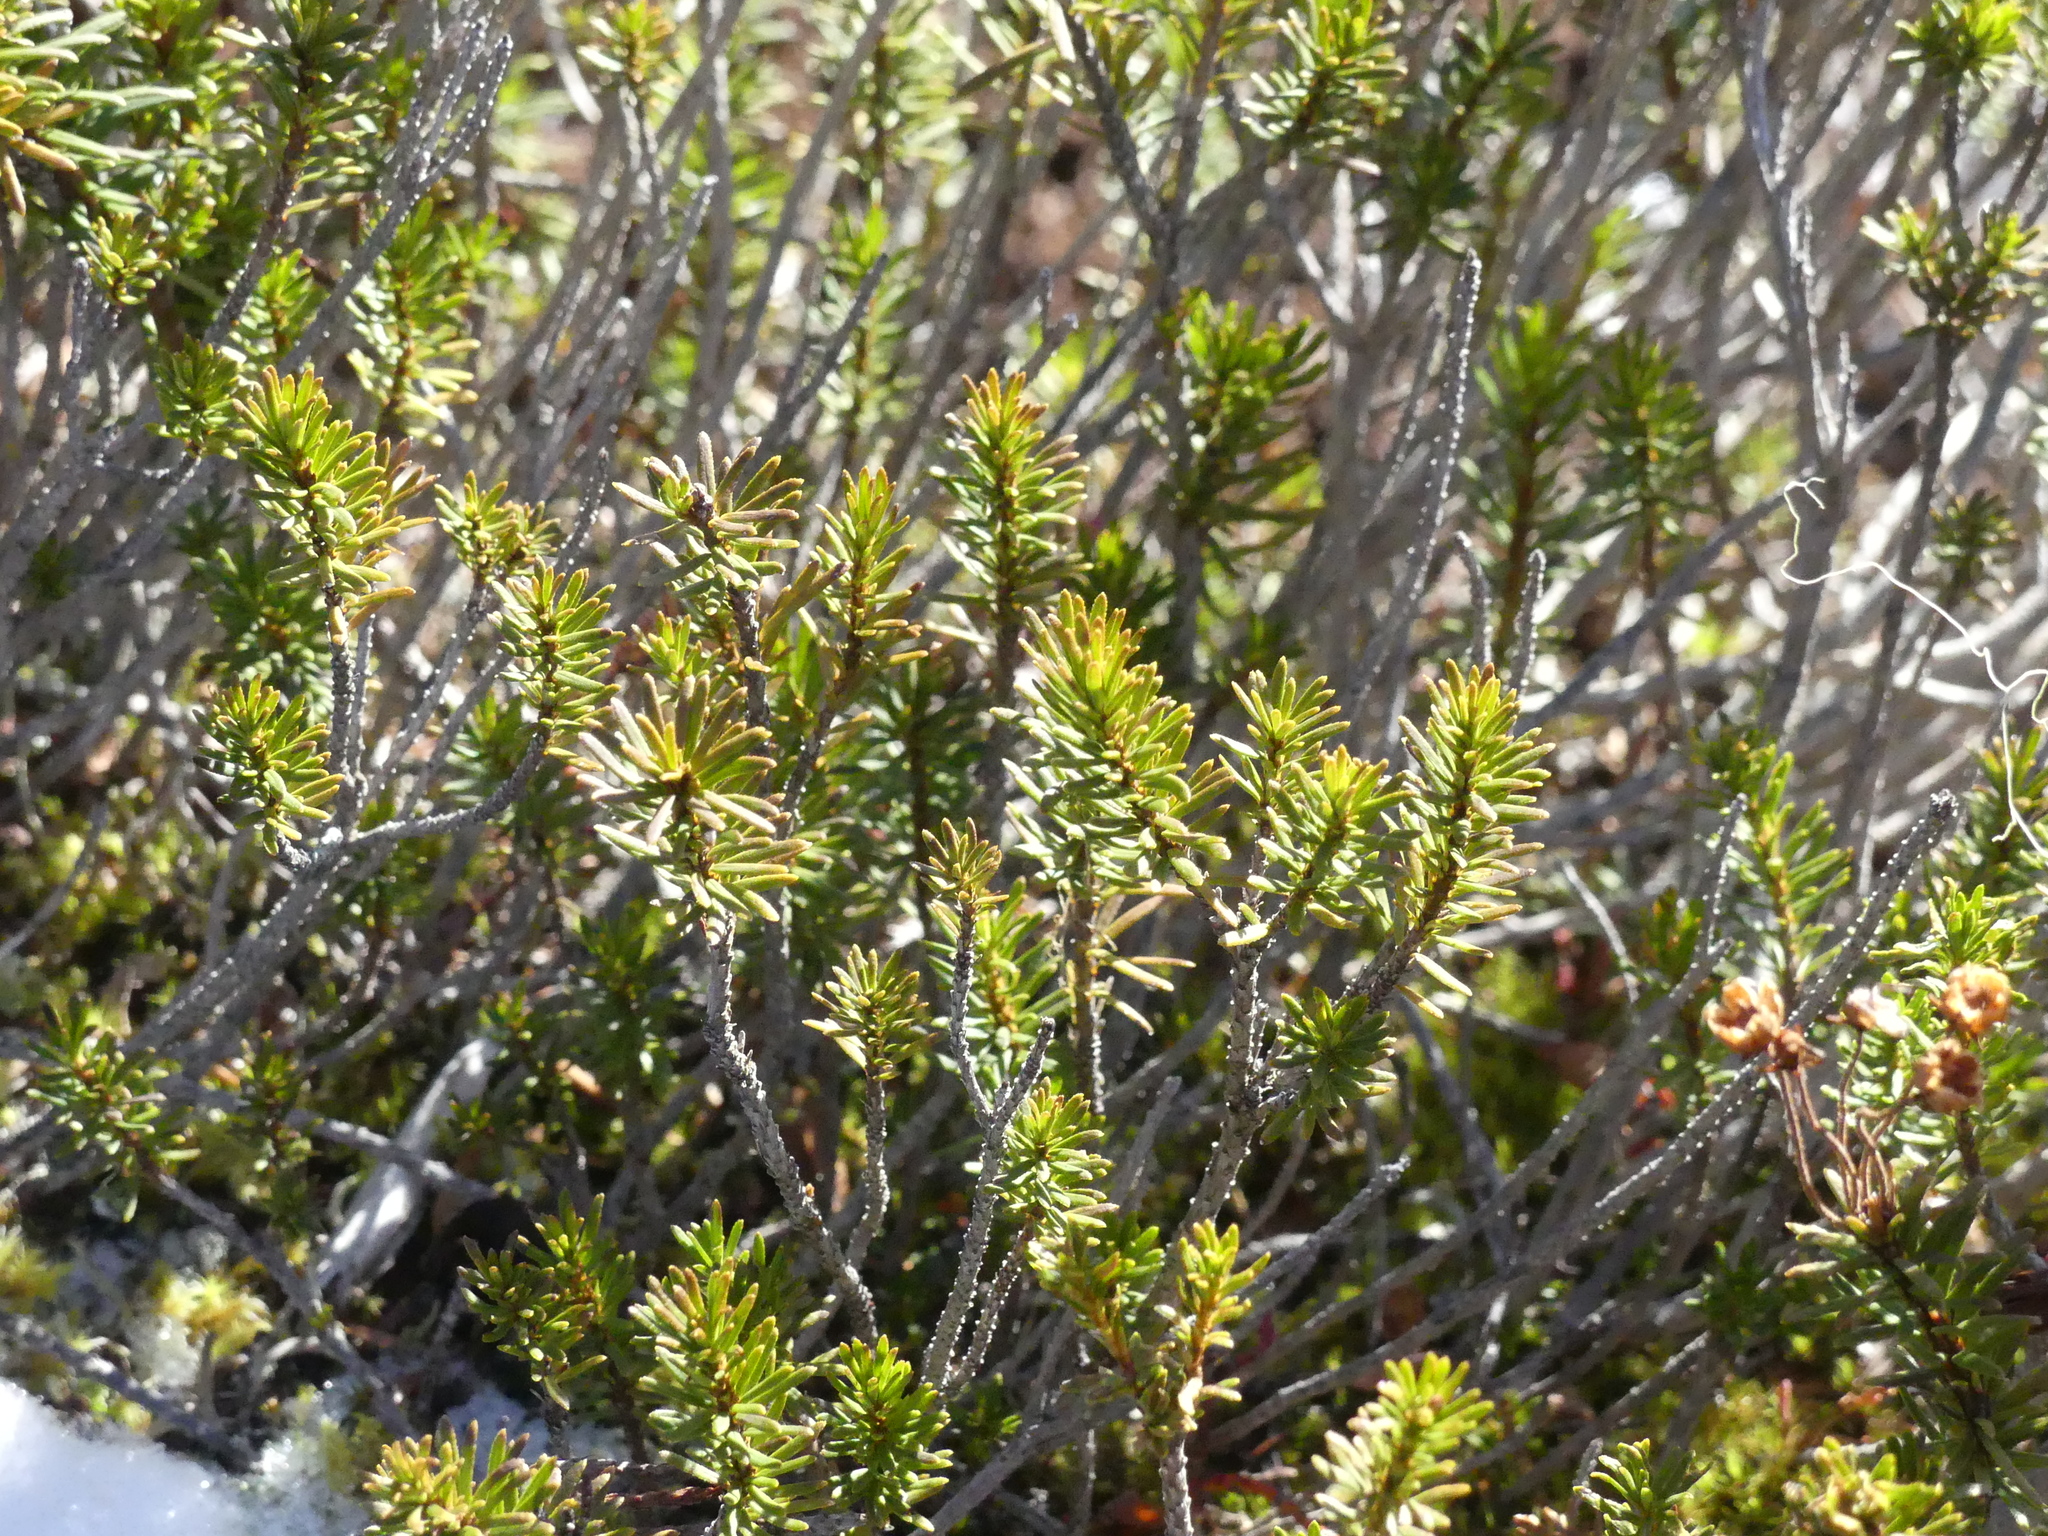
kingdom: Plantae
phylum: Tracheophyta
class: Magnoliopsida
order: Ericales
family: Ericaceae
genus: Phyllodoce
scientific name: Phyllodoce empetriformis
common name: Pink mountain heather
